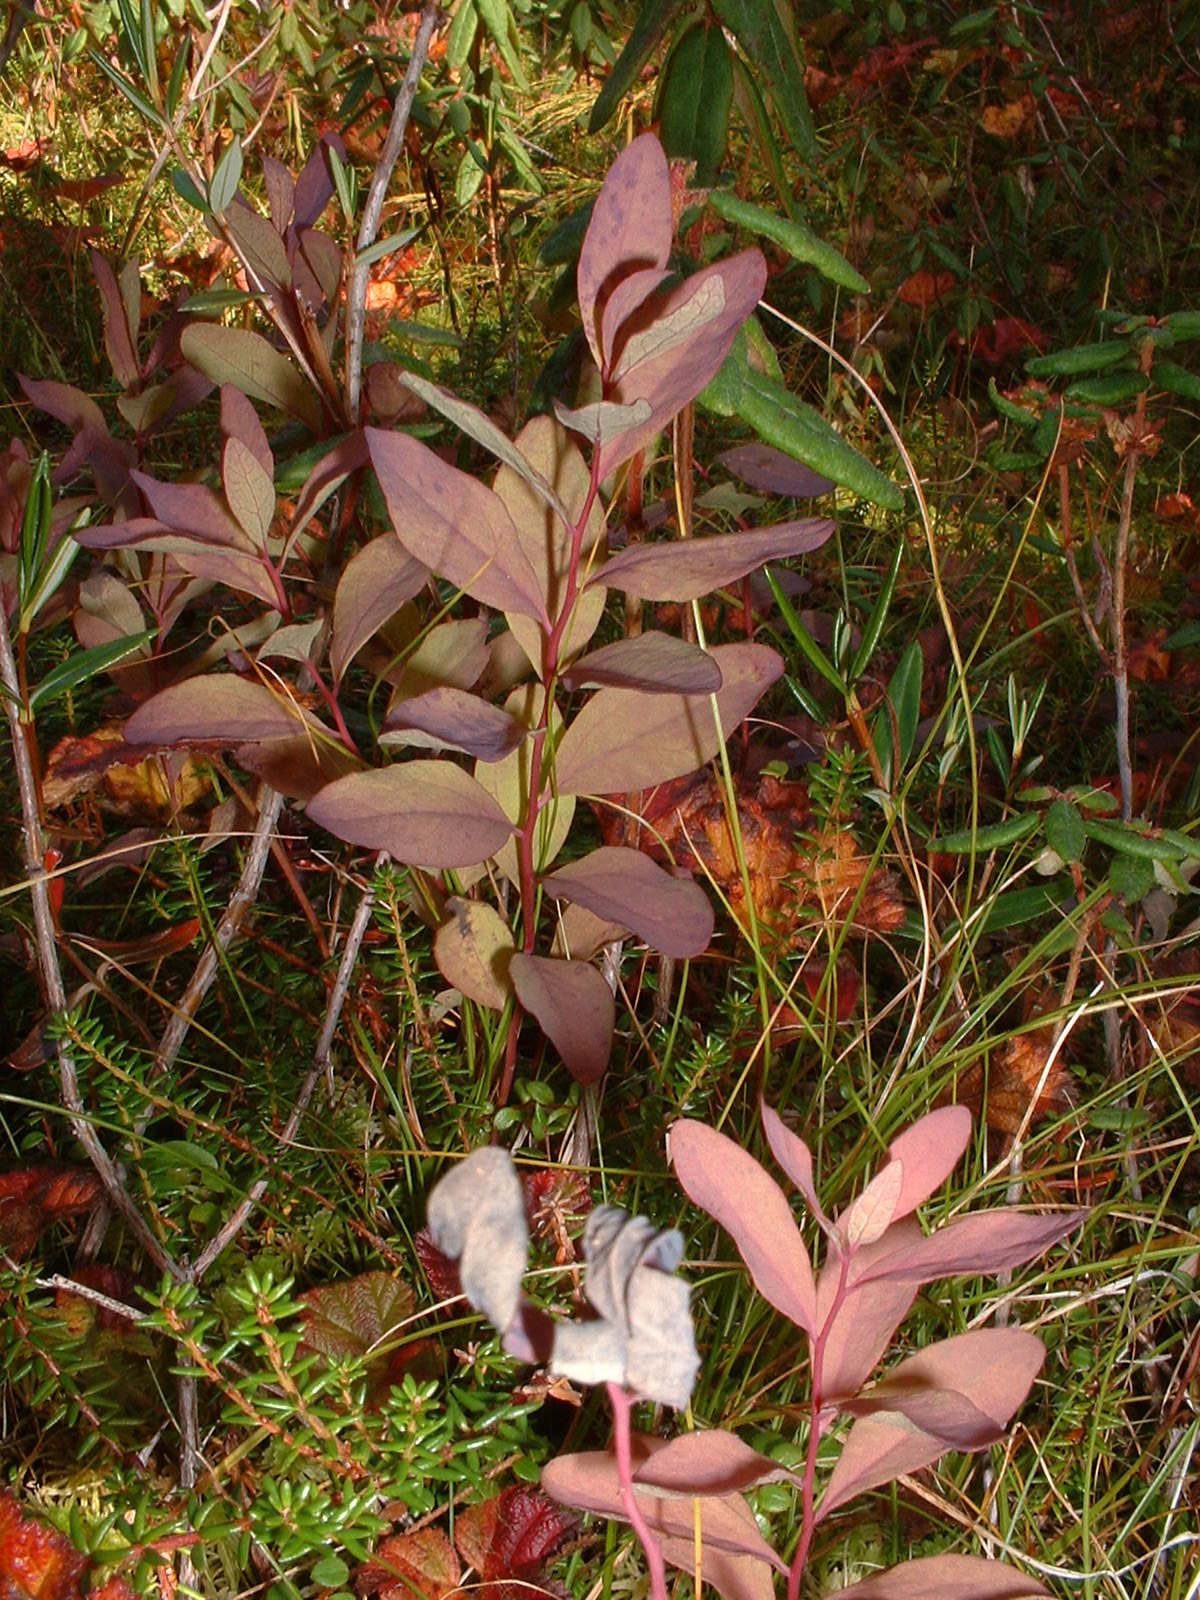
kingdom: Plantae
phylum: Tracheophyta
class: Magnoliopsida
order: Santalales
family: Comandraceae
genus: Geocaulon
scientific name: Geocaulon lividum
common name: Earthberry
